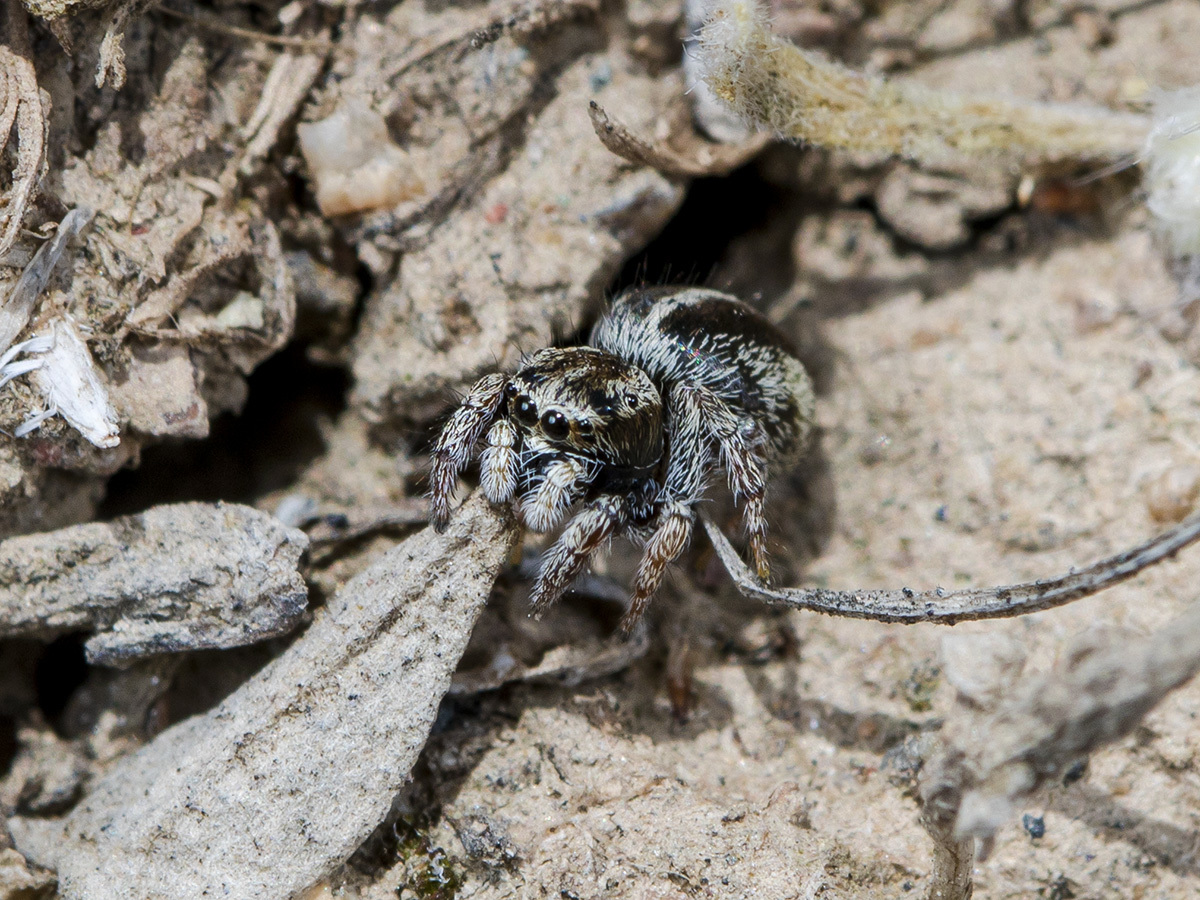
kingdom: Animalia
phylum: Arthropoda
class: Arachnida
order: Araneae
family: Salticidae
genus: Pellenes
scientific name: Pellenes epularis
